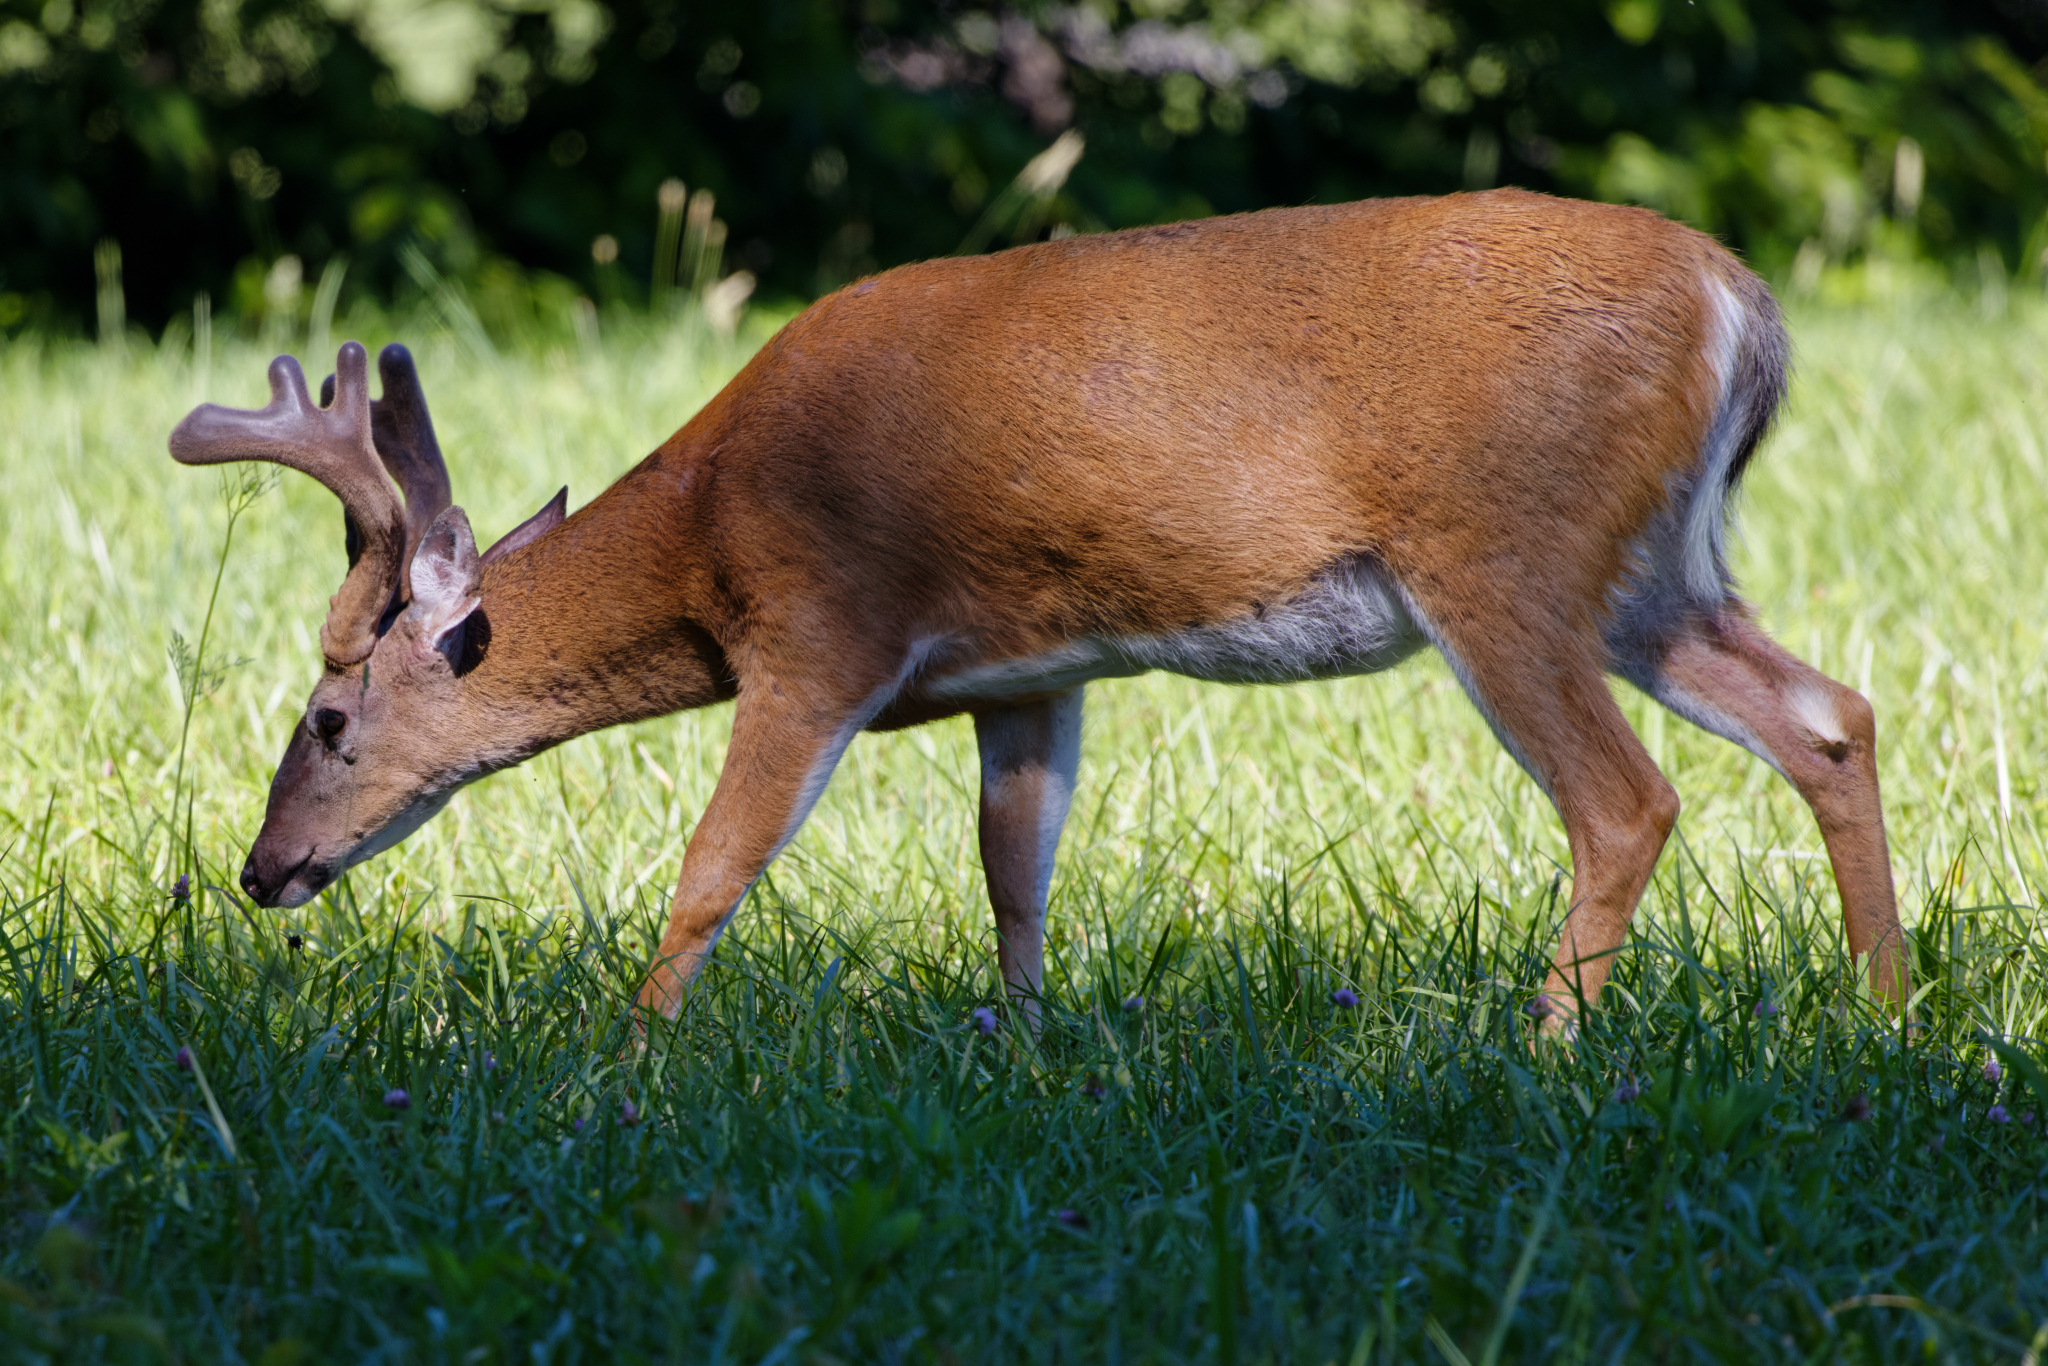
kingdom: Animalia
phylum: Chordata
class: Mammalia
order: Artiodactyla
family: Cervidae
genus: Odocoileus
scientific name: Odocoileus virginianus
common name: White-tailed deer
